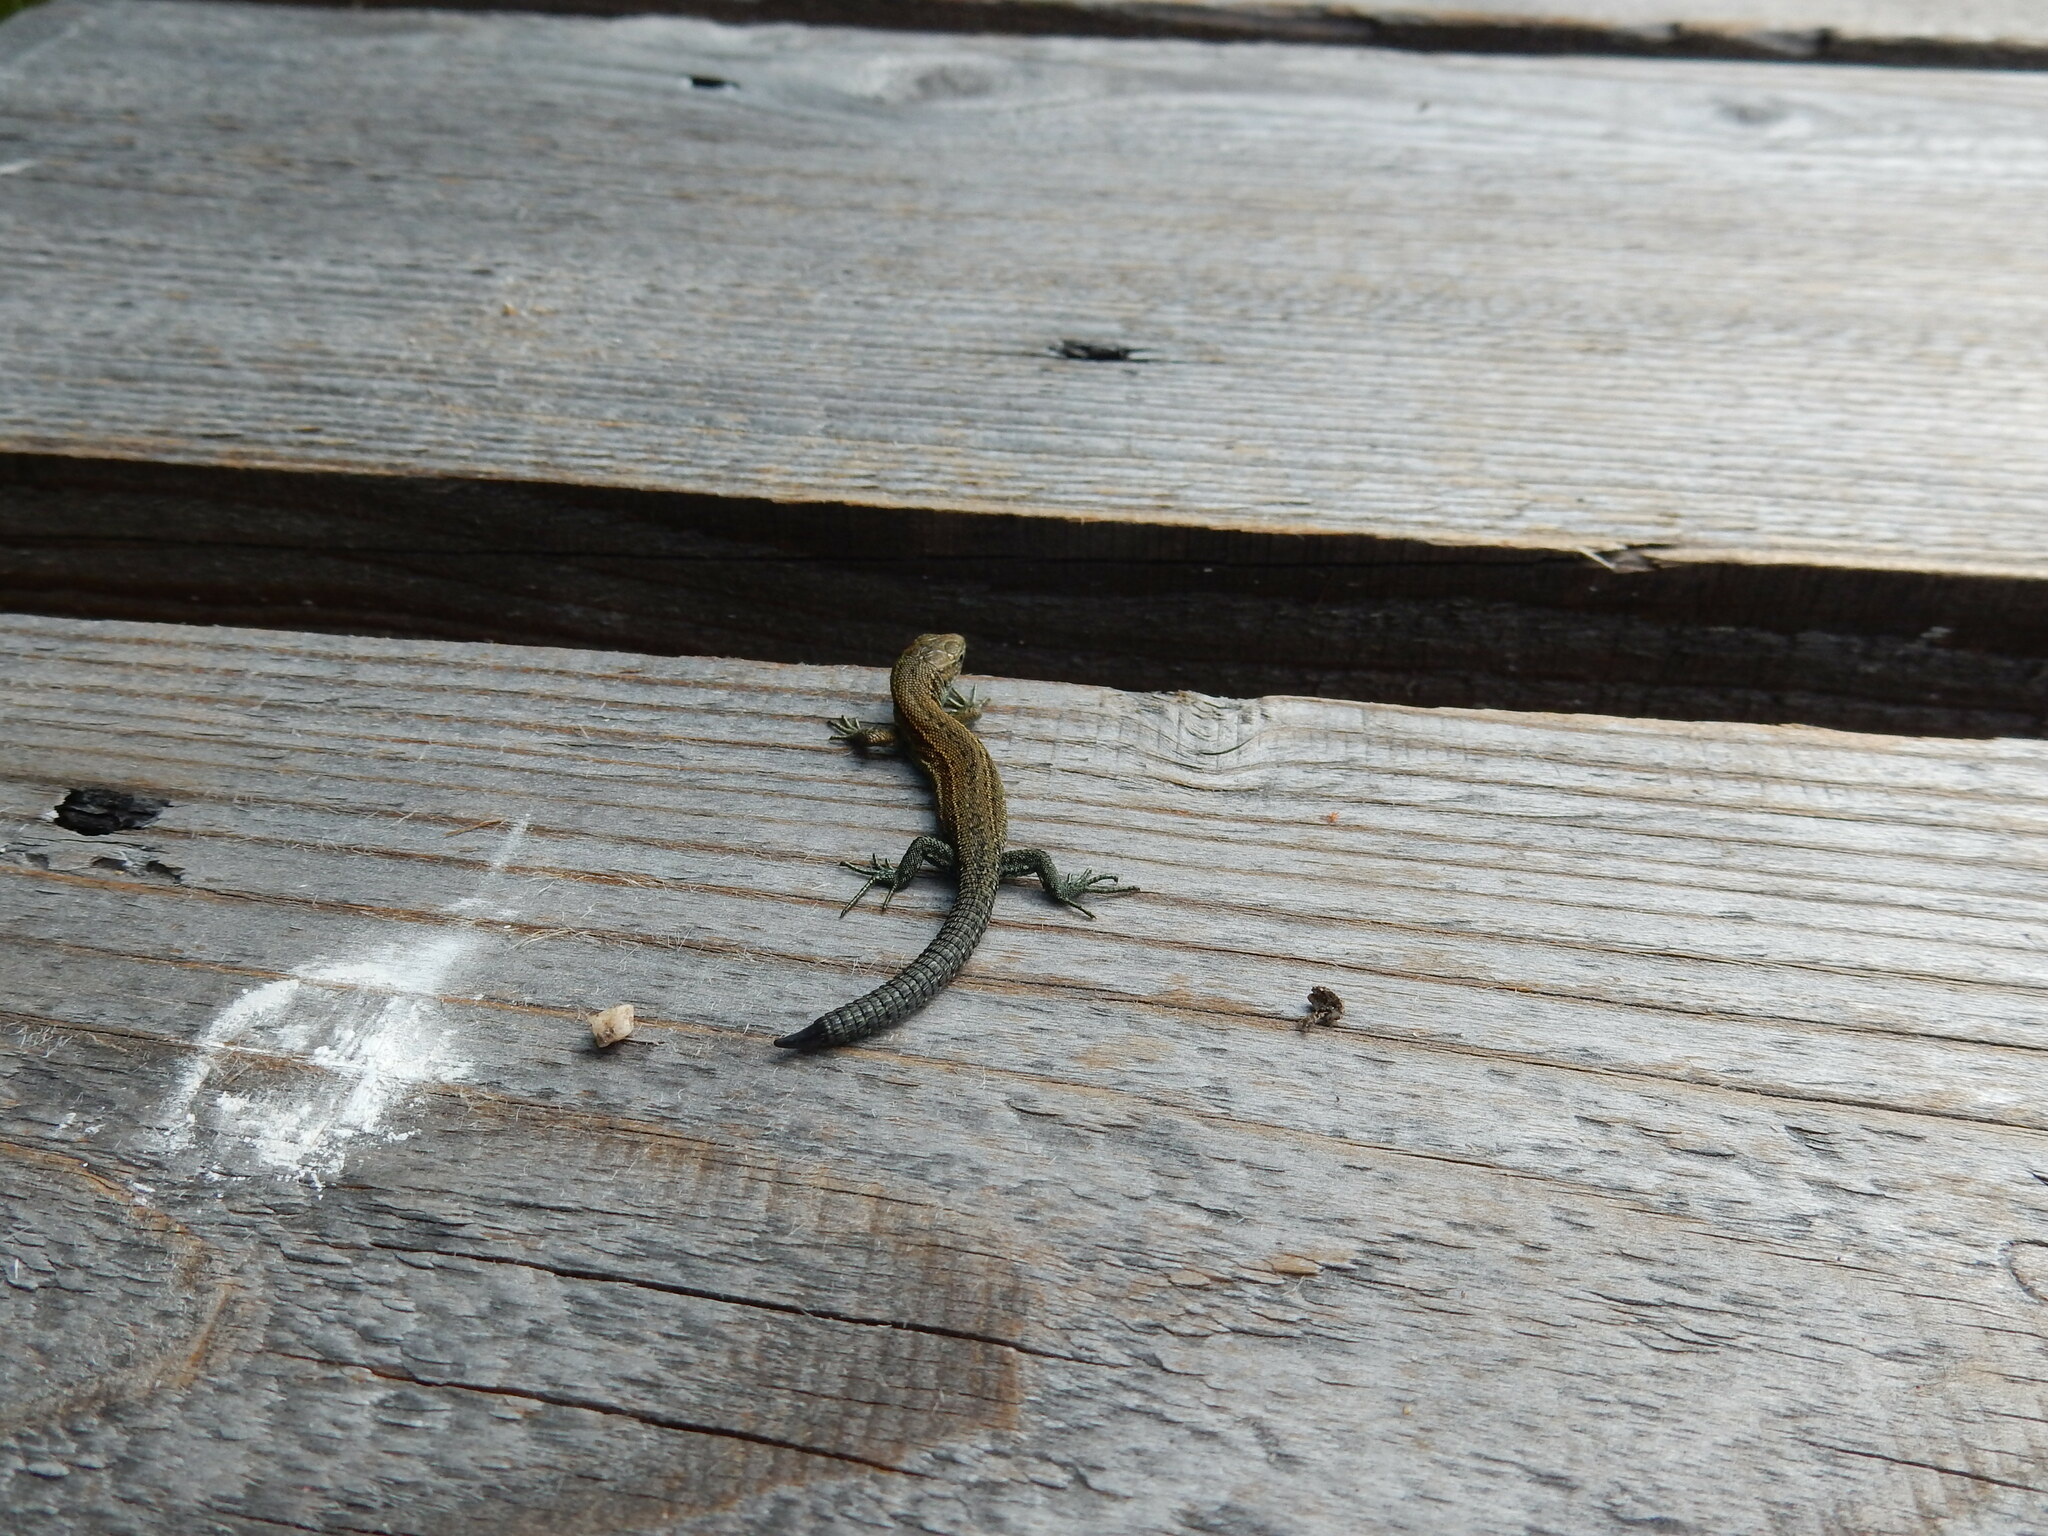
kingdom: Animalia
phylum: Chordata
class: Squamata
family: Lacertidae
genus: Zootoca
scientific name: Zootoca vivipara
